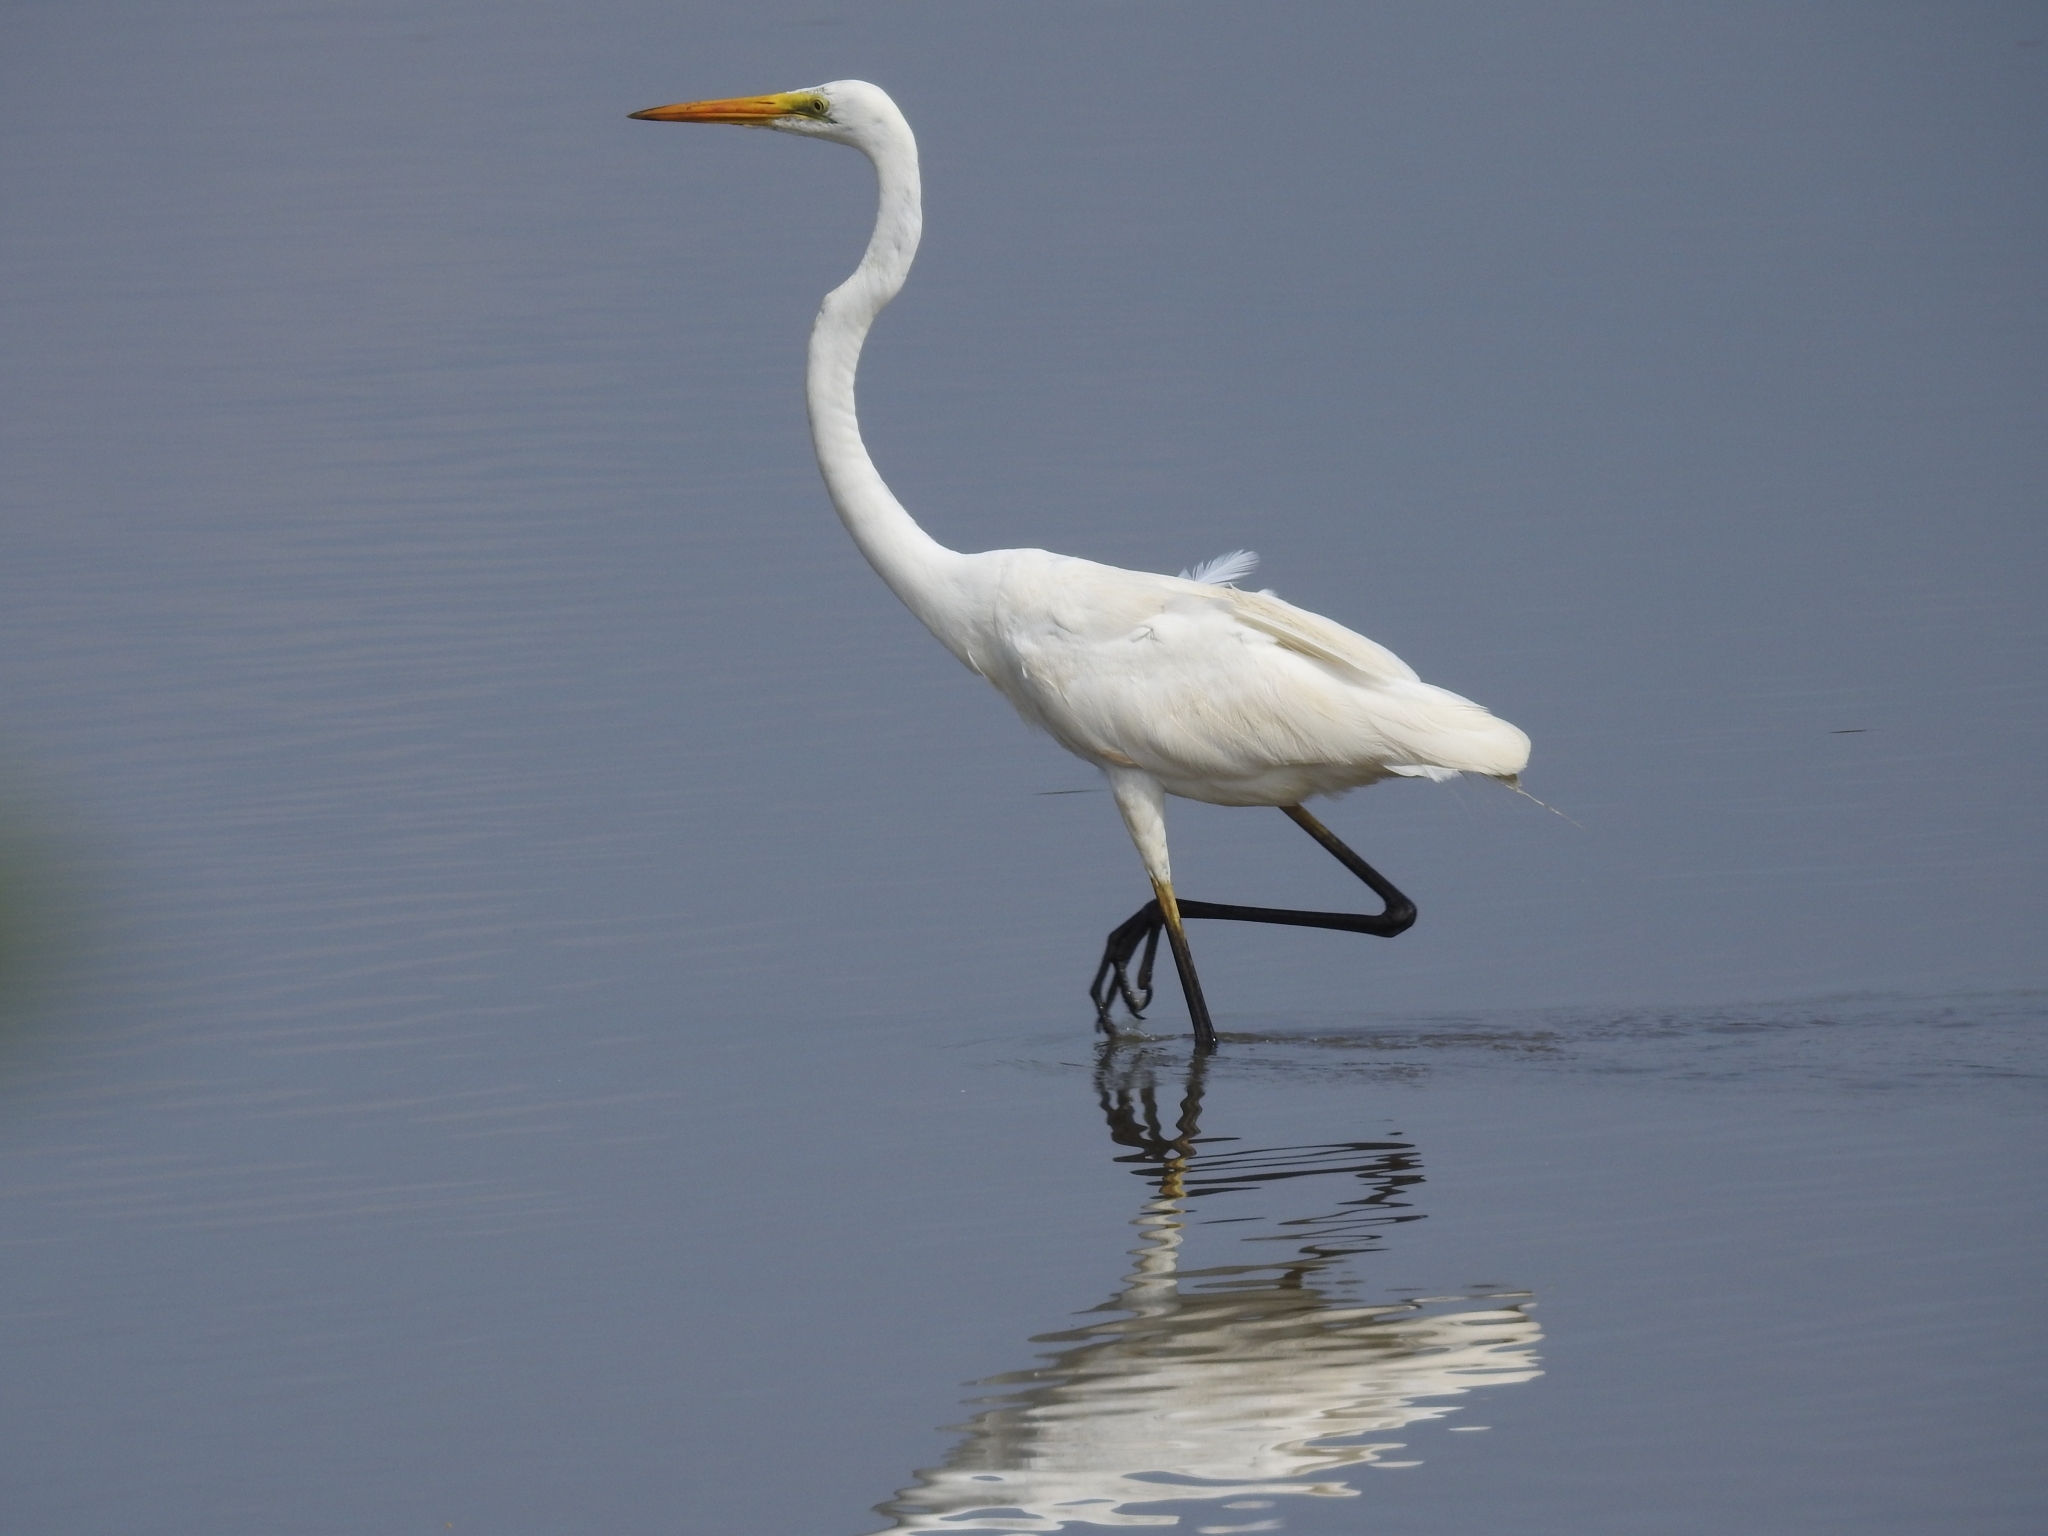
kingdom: Animalia
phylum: Chordata
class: Aves
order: Pelecaniformes
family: Ardeidae
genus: Ardea
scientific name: Ardea alba
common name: Great egret
